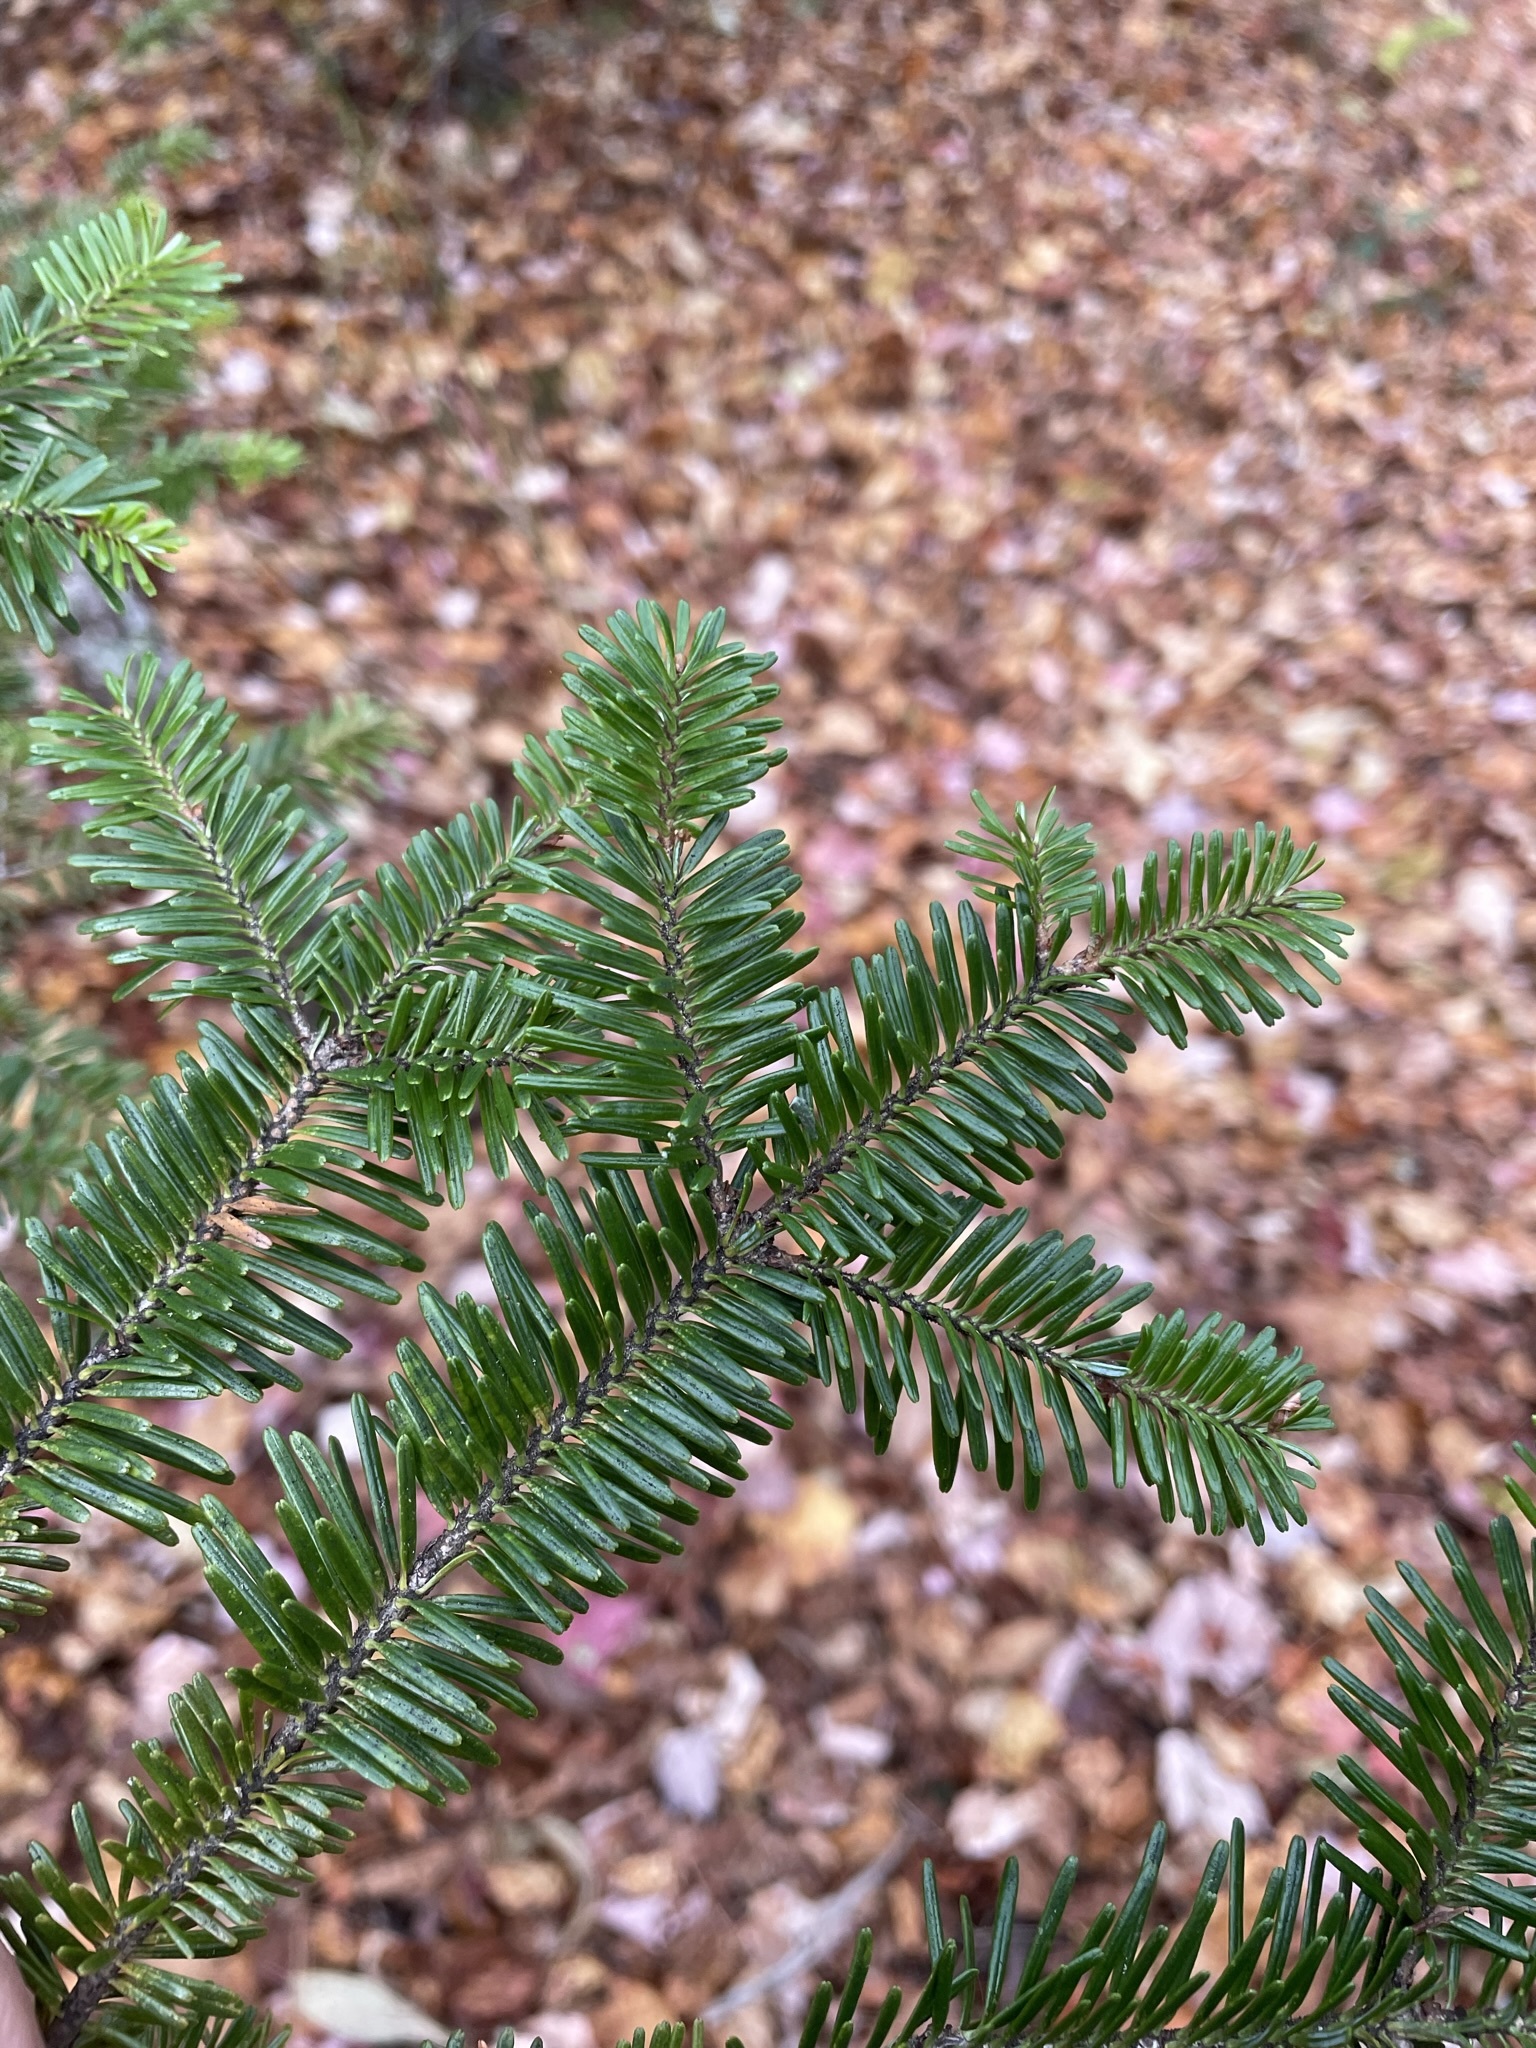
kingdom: Plantae
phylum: Tracheophyta
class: Pinopsida
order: Pinales
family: Pinaceae
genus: Abies
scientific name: Abies fraseri
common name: Fraser fir
